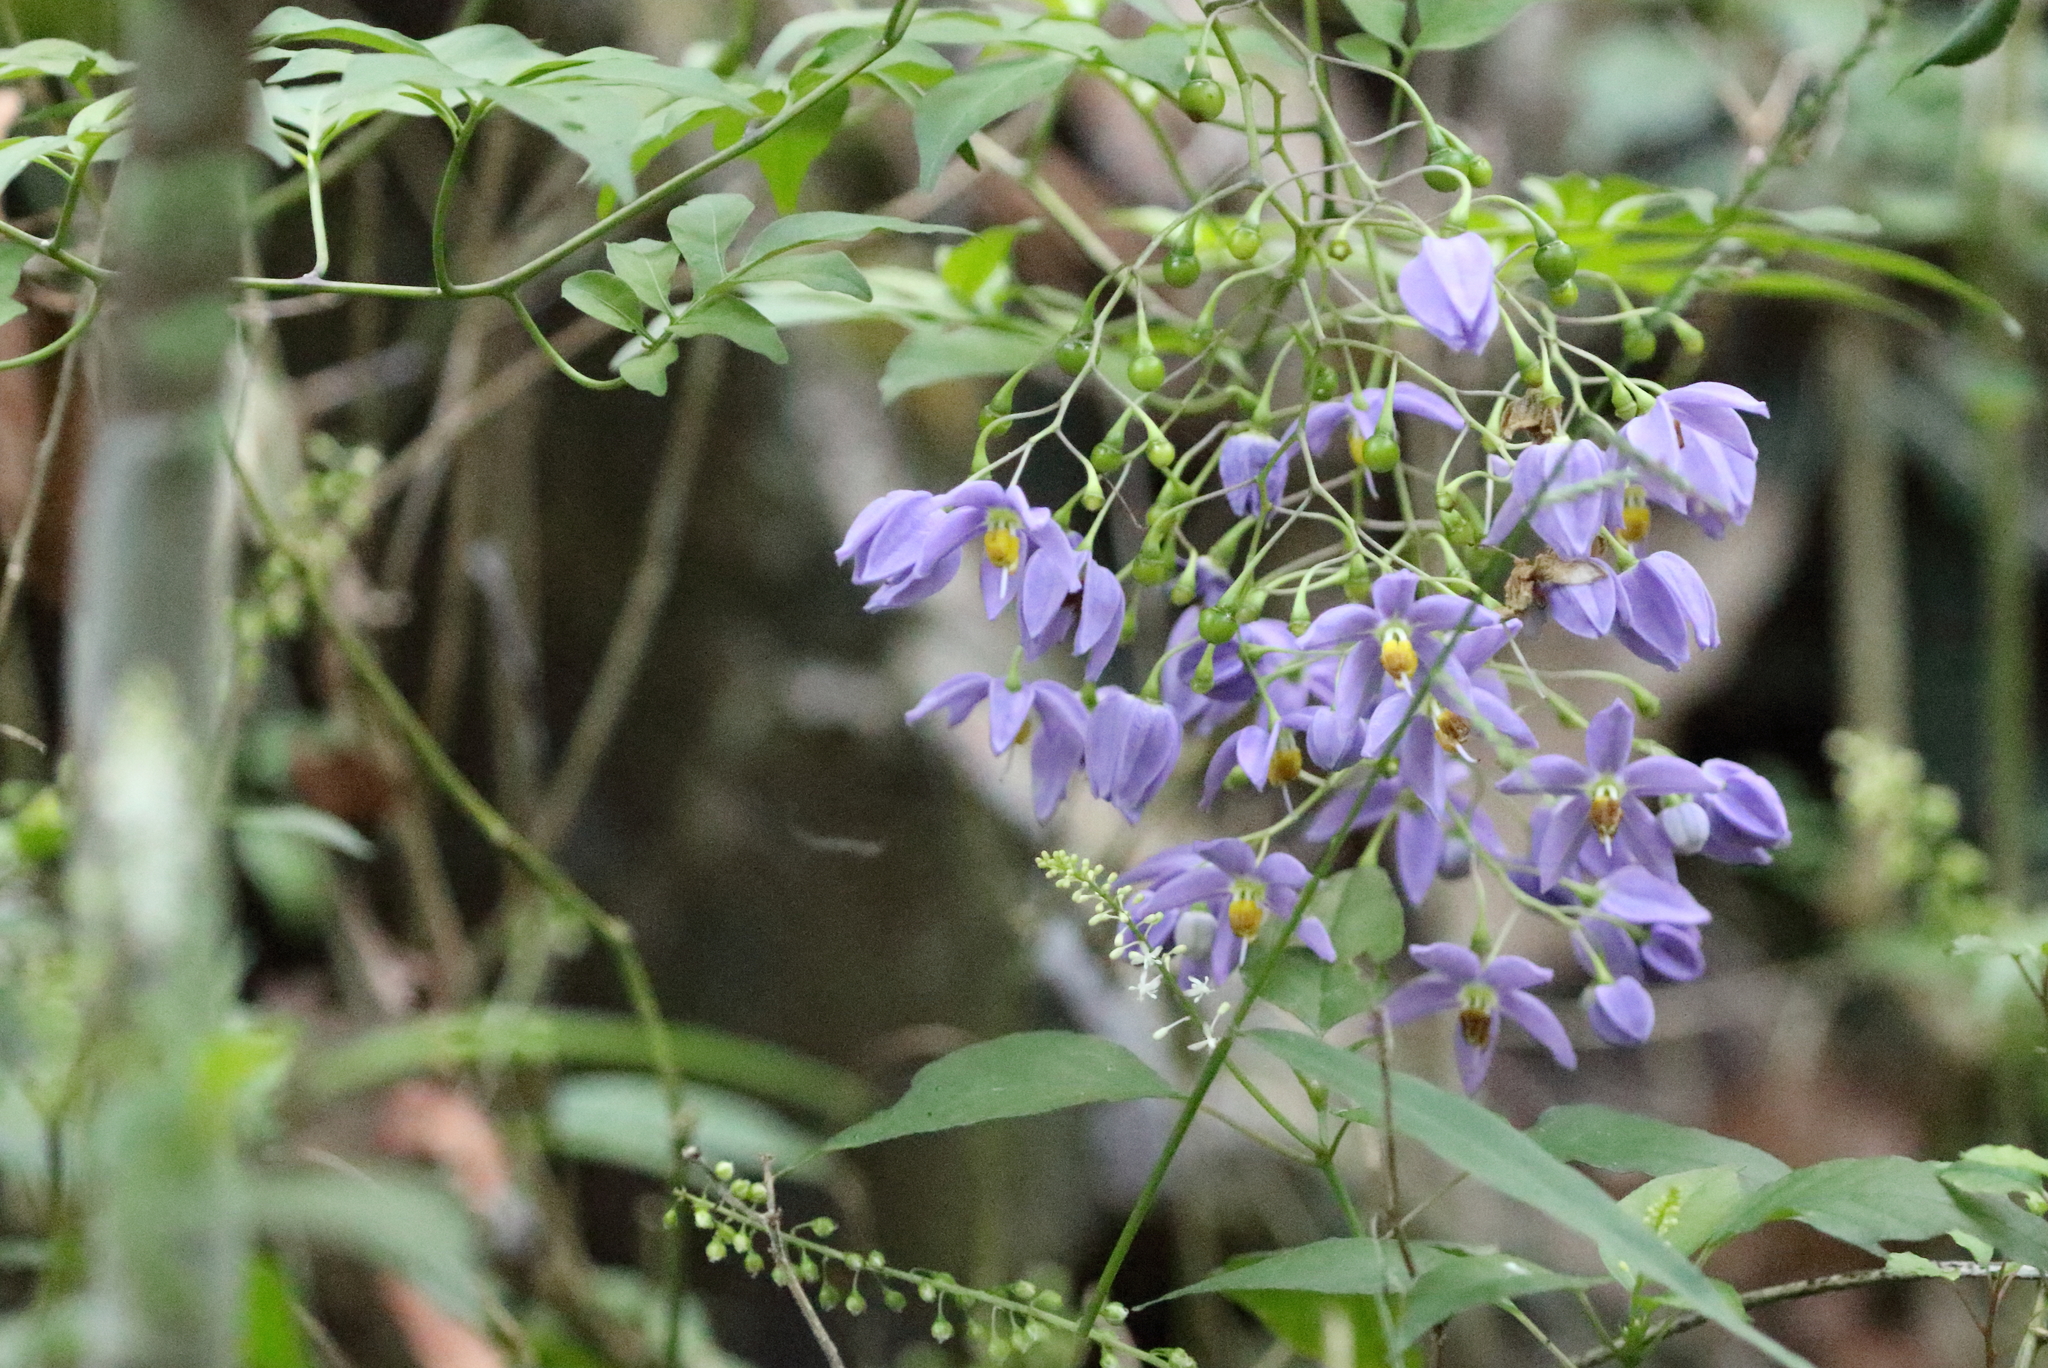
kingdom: Plantae
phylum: Tracheophyta
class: Magnoliopsida
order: Solanales
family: Solanaceae
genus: Solanum
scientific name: Solanum seaforthianum
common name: Brazilian nightshade
